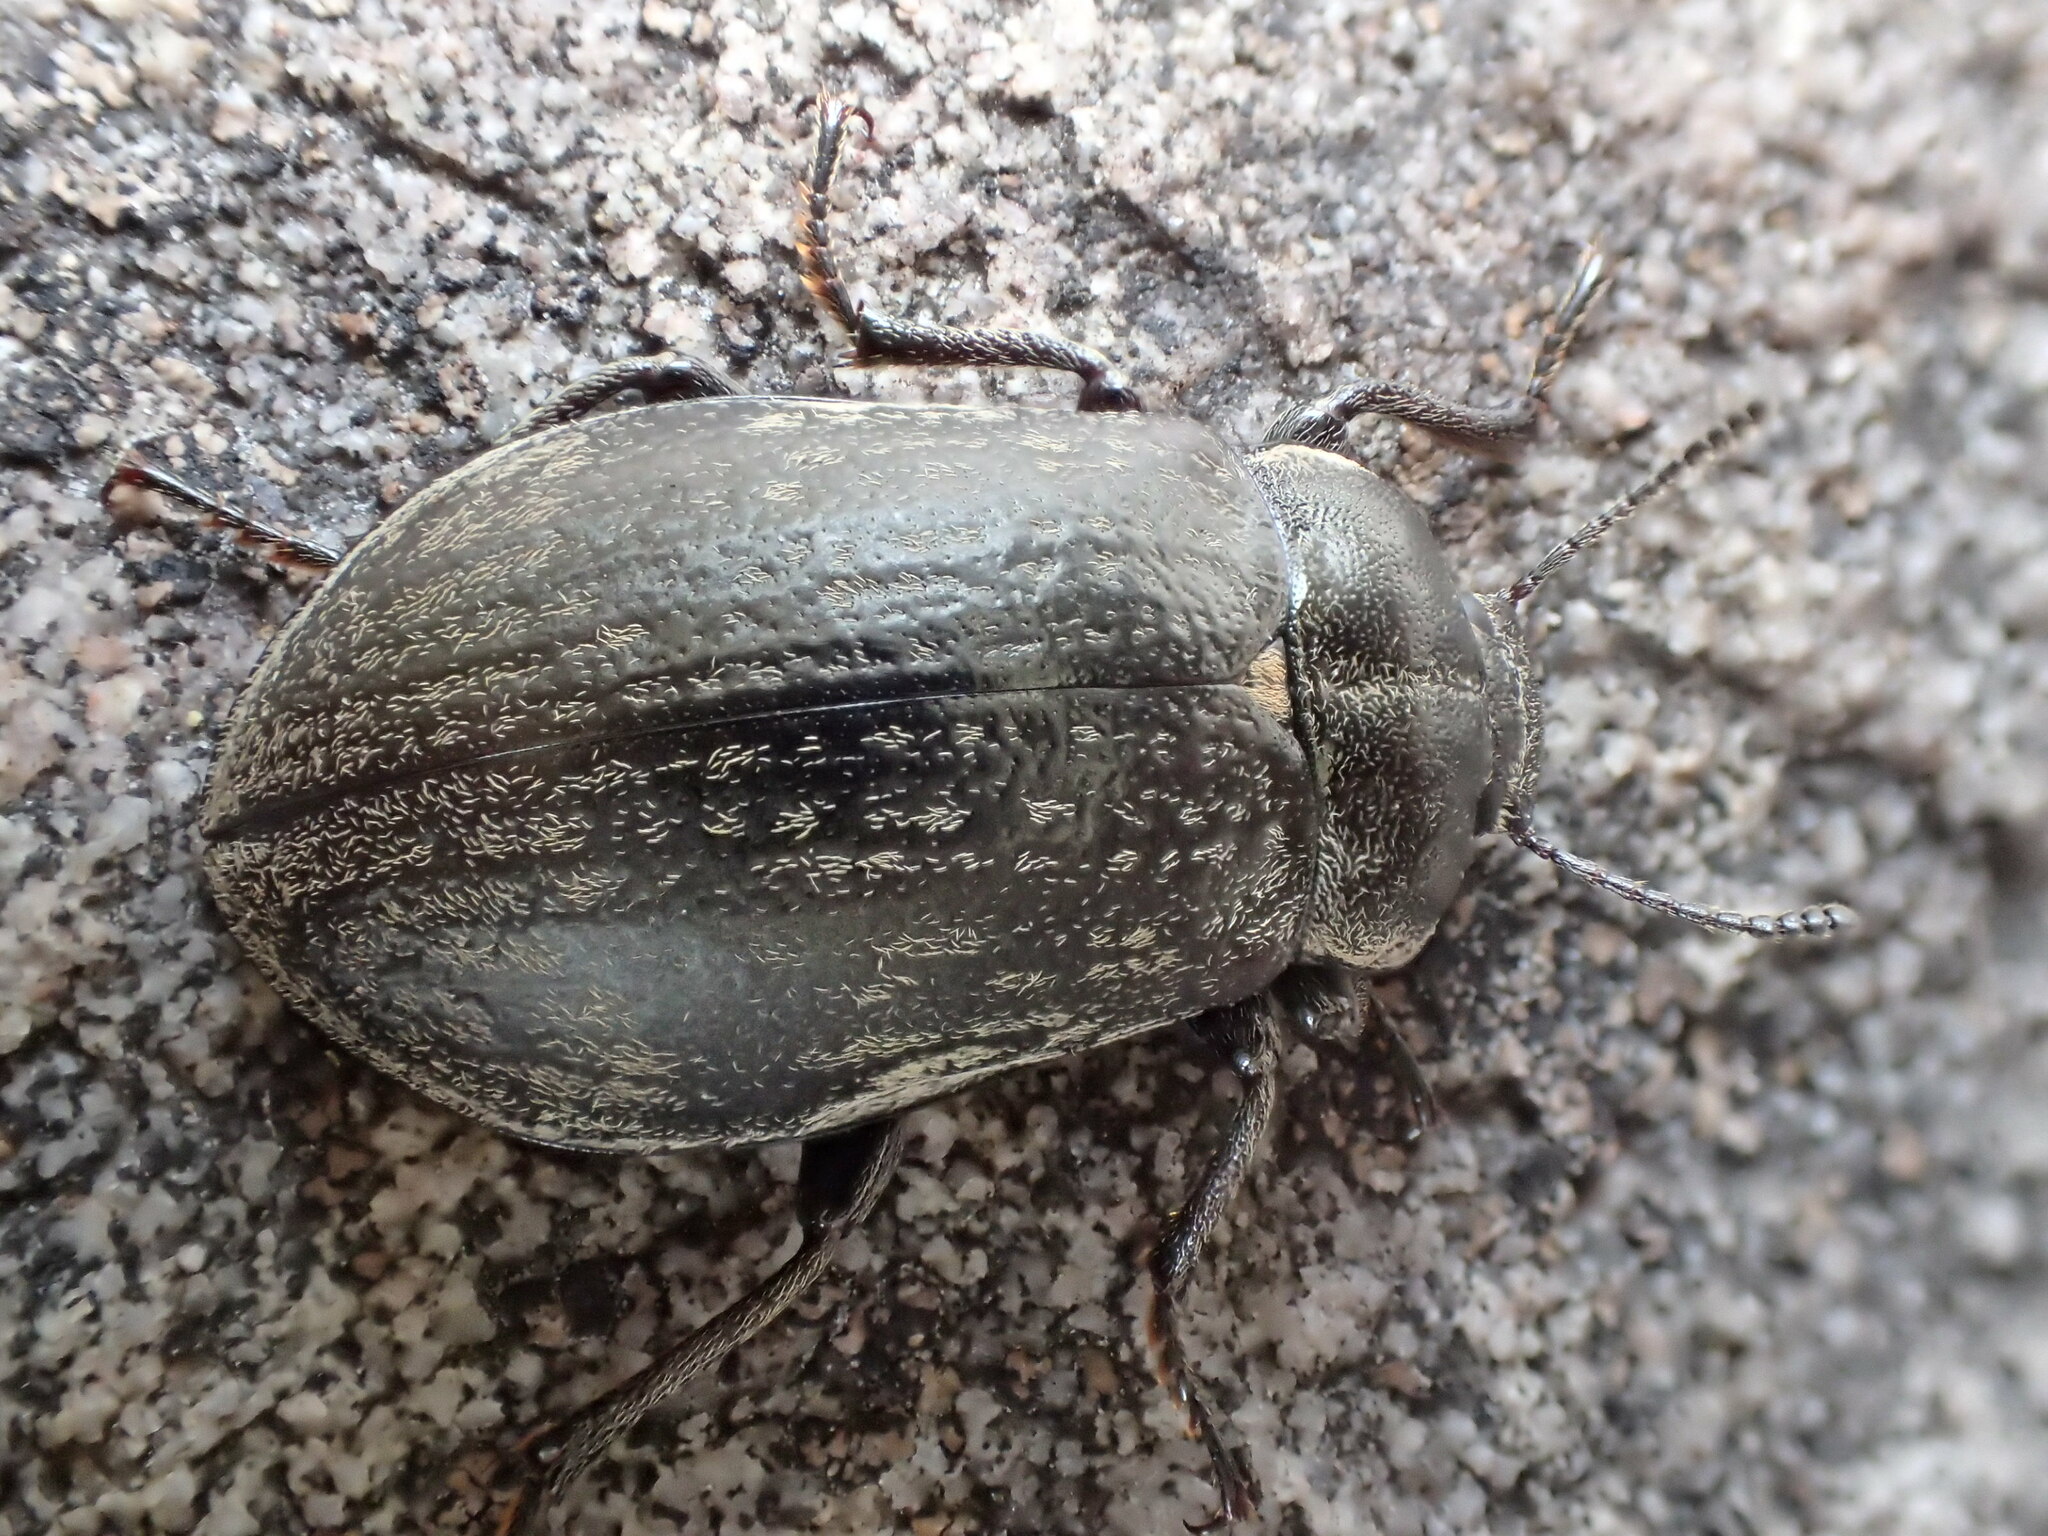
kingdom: Animalia
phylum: Arthropoda
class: Insecta
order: Coleoptera
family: Tenebrionidae
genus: Pachycoelia
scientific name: Pachycoelia
